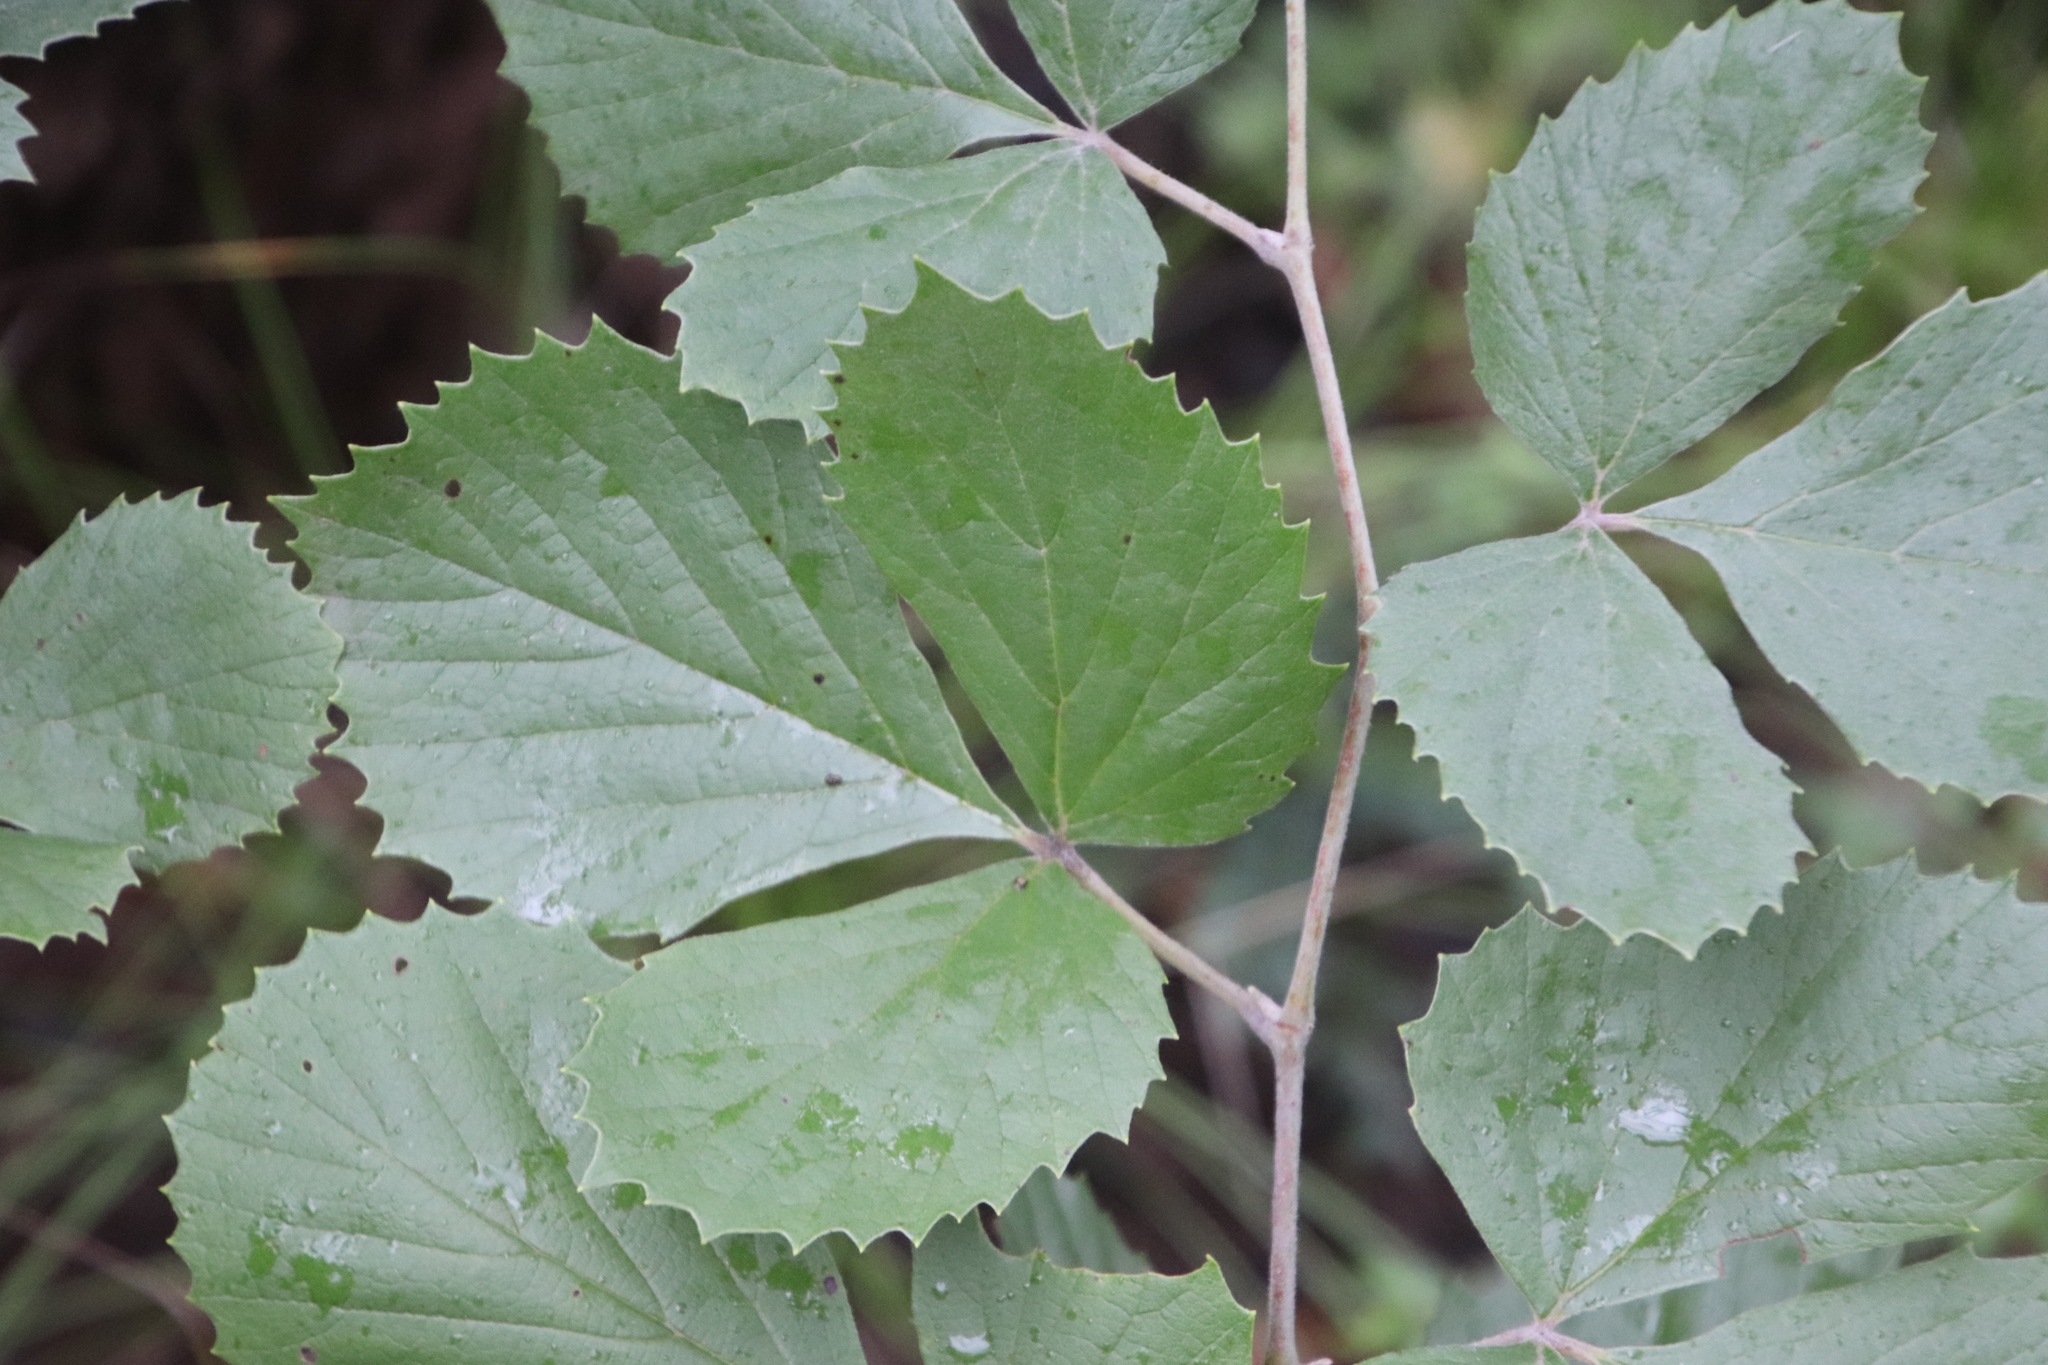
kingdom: Plantae
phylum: Tracheophyta
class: Magnoliopsida
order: Vitales
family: Vitaceae
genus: Rhoicissus
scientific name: Rhoicissus tridentata
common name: Common forest grape
